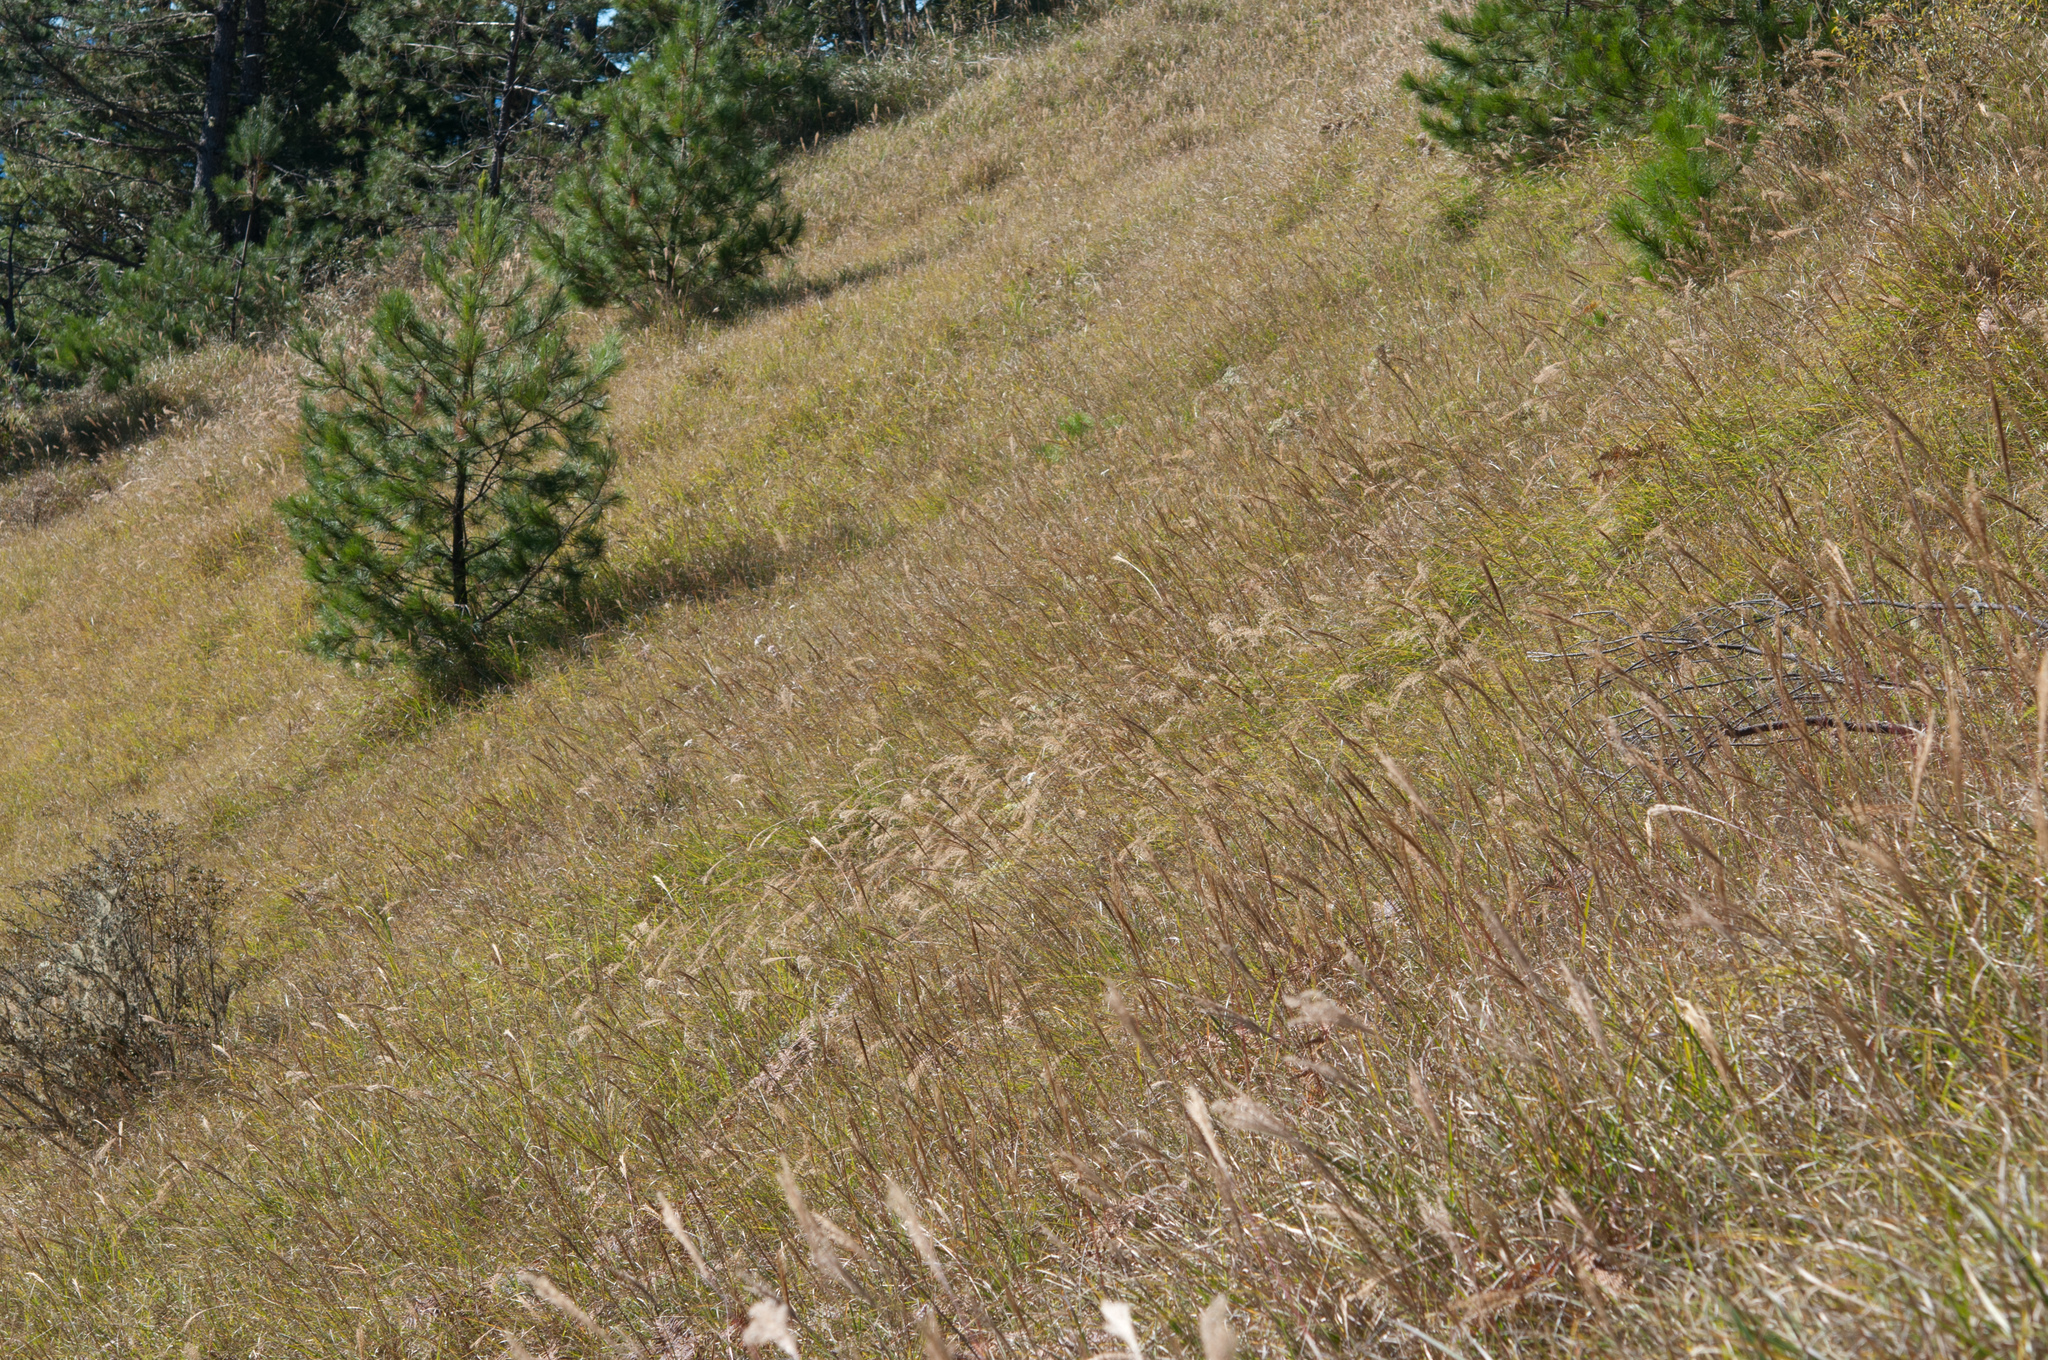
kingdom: Plantae
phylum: Tracheophyta
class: Liliopsida
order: Poales
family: Poaceae
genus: Miscanthus
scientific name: Miscanthus sinensis
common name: Chinese silvergrass
